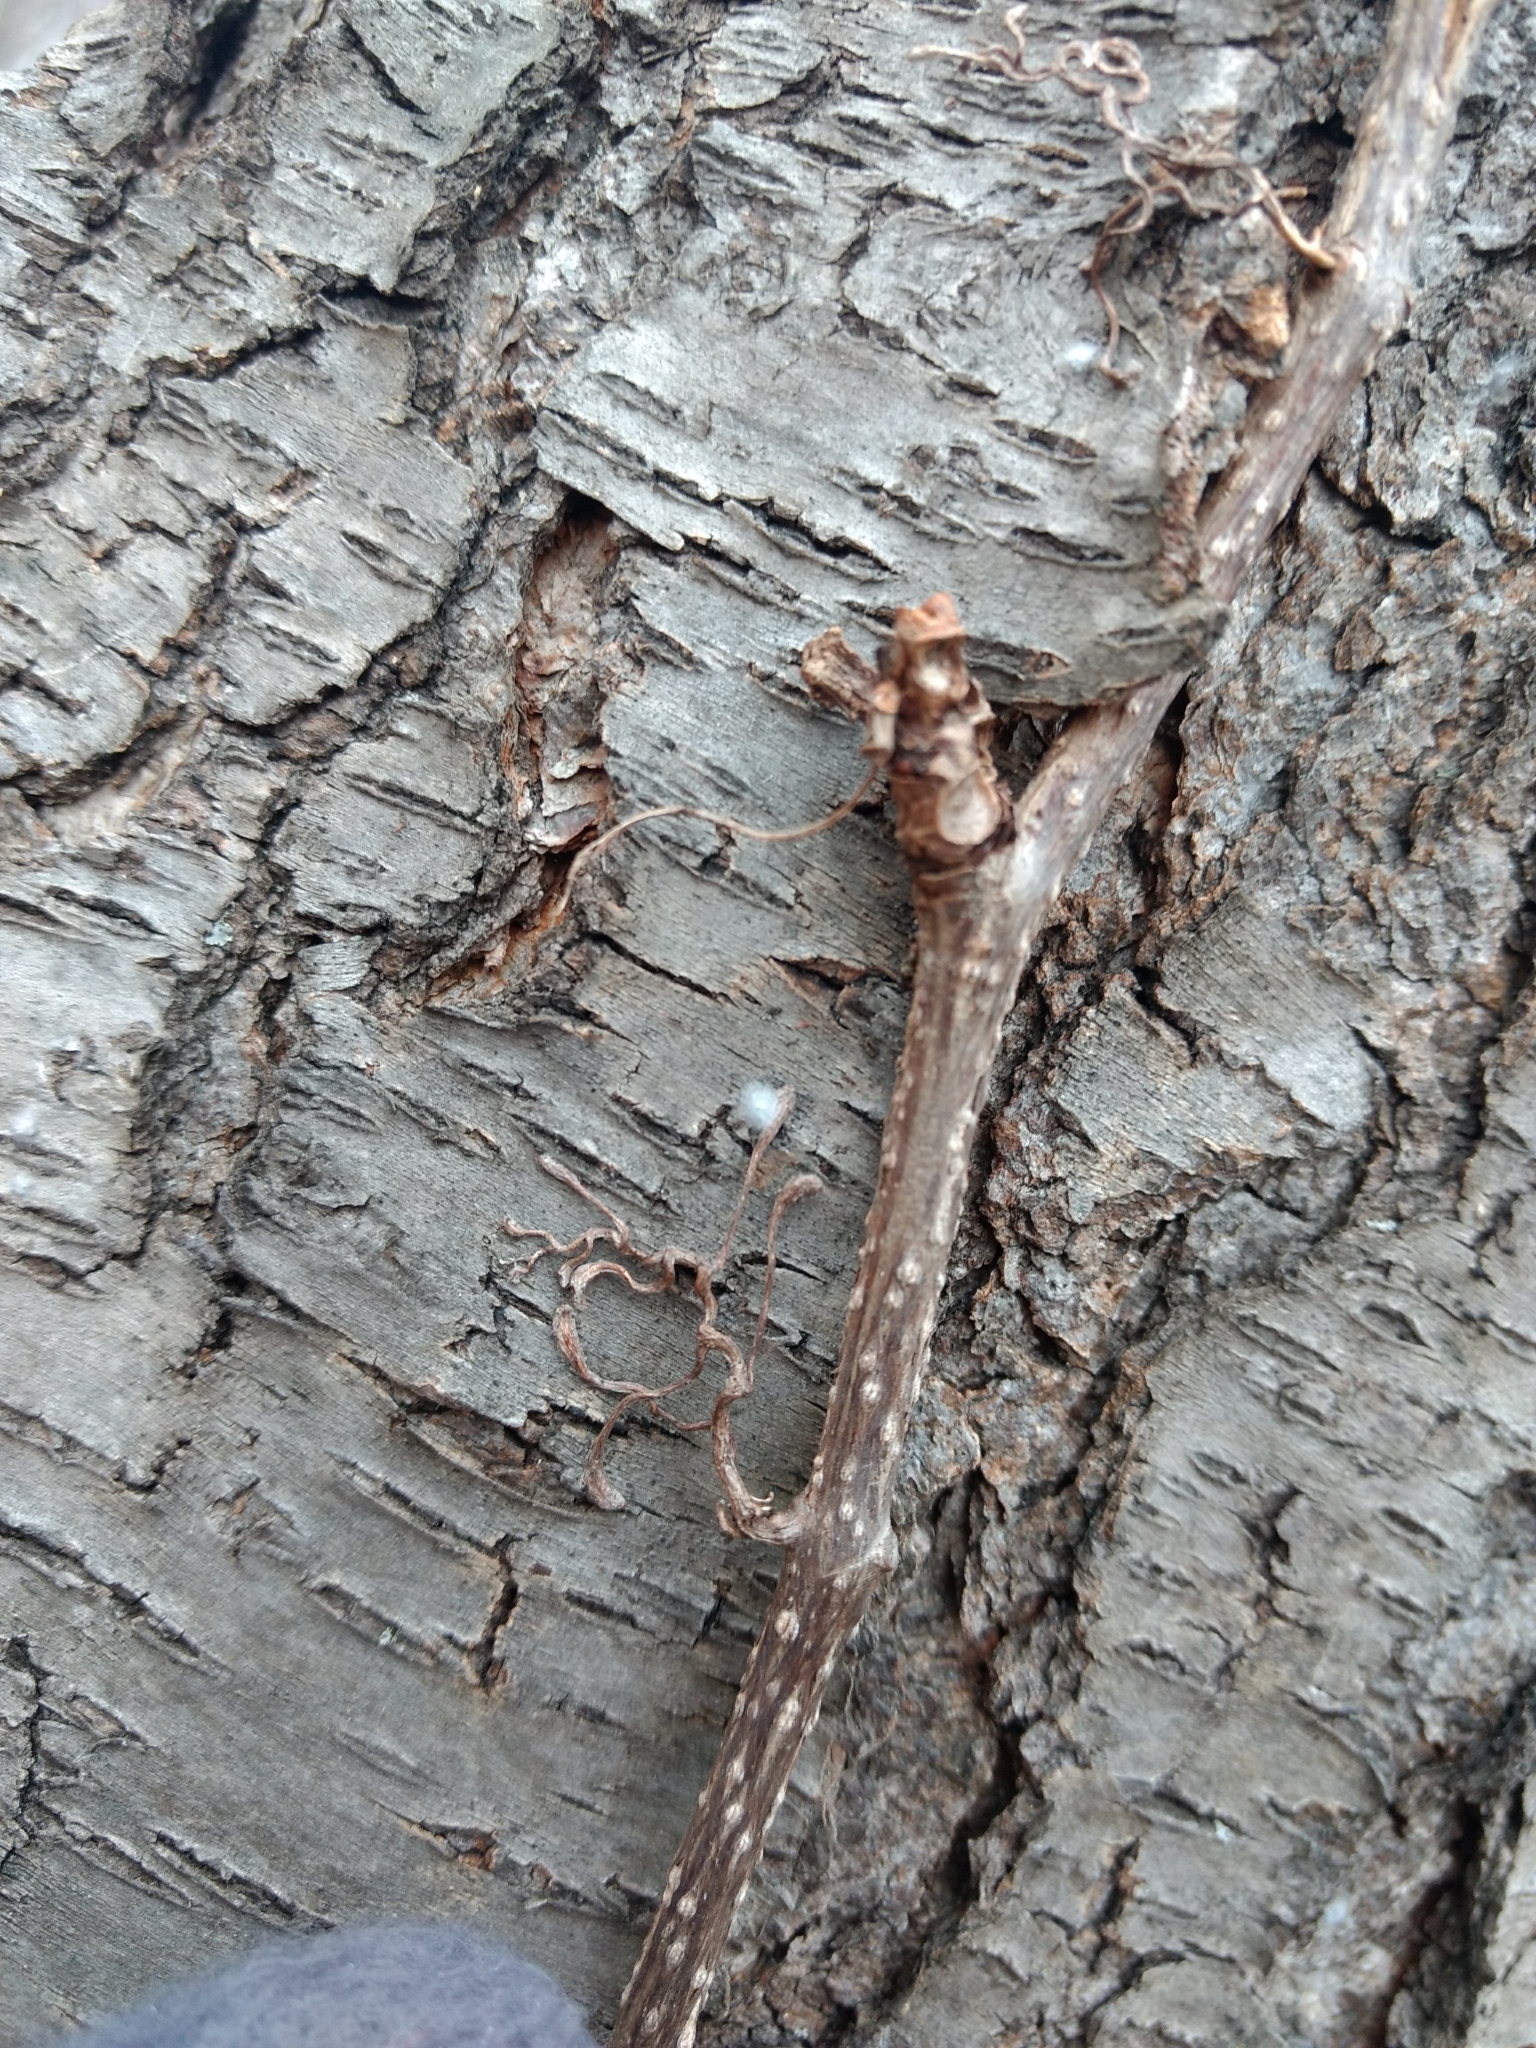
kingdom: Plantae
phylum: Tracheophyta
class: Magnoliopsida
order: Vitales
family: Vitaceae
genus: Parthenocissus
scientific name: Parthenocissus inserta
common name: False virginia-creeper
